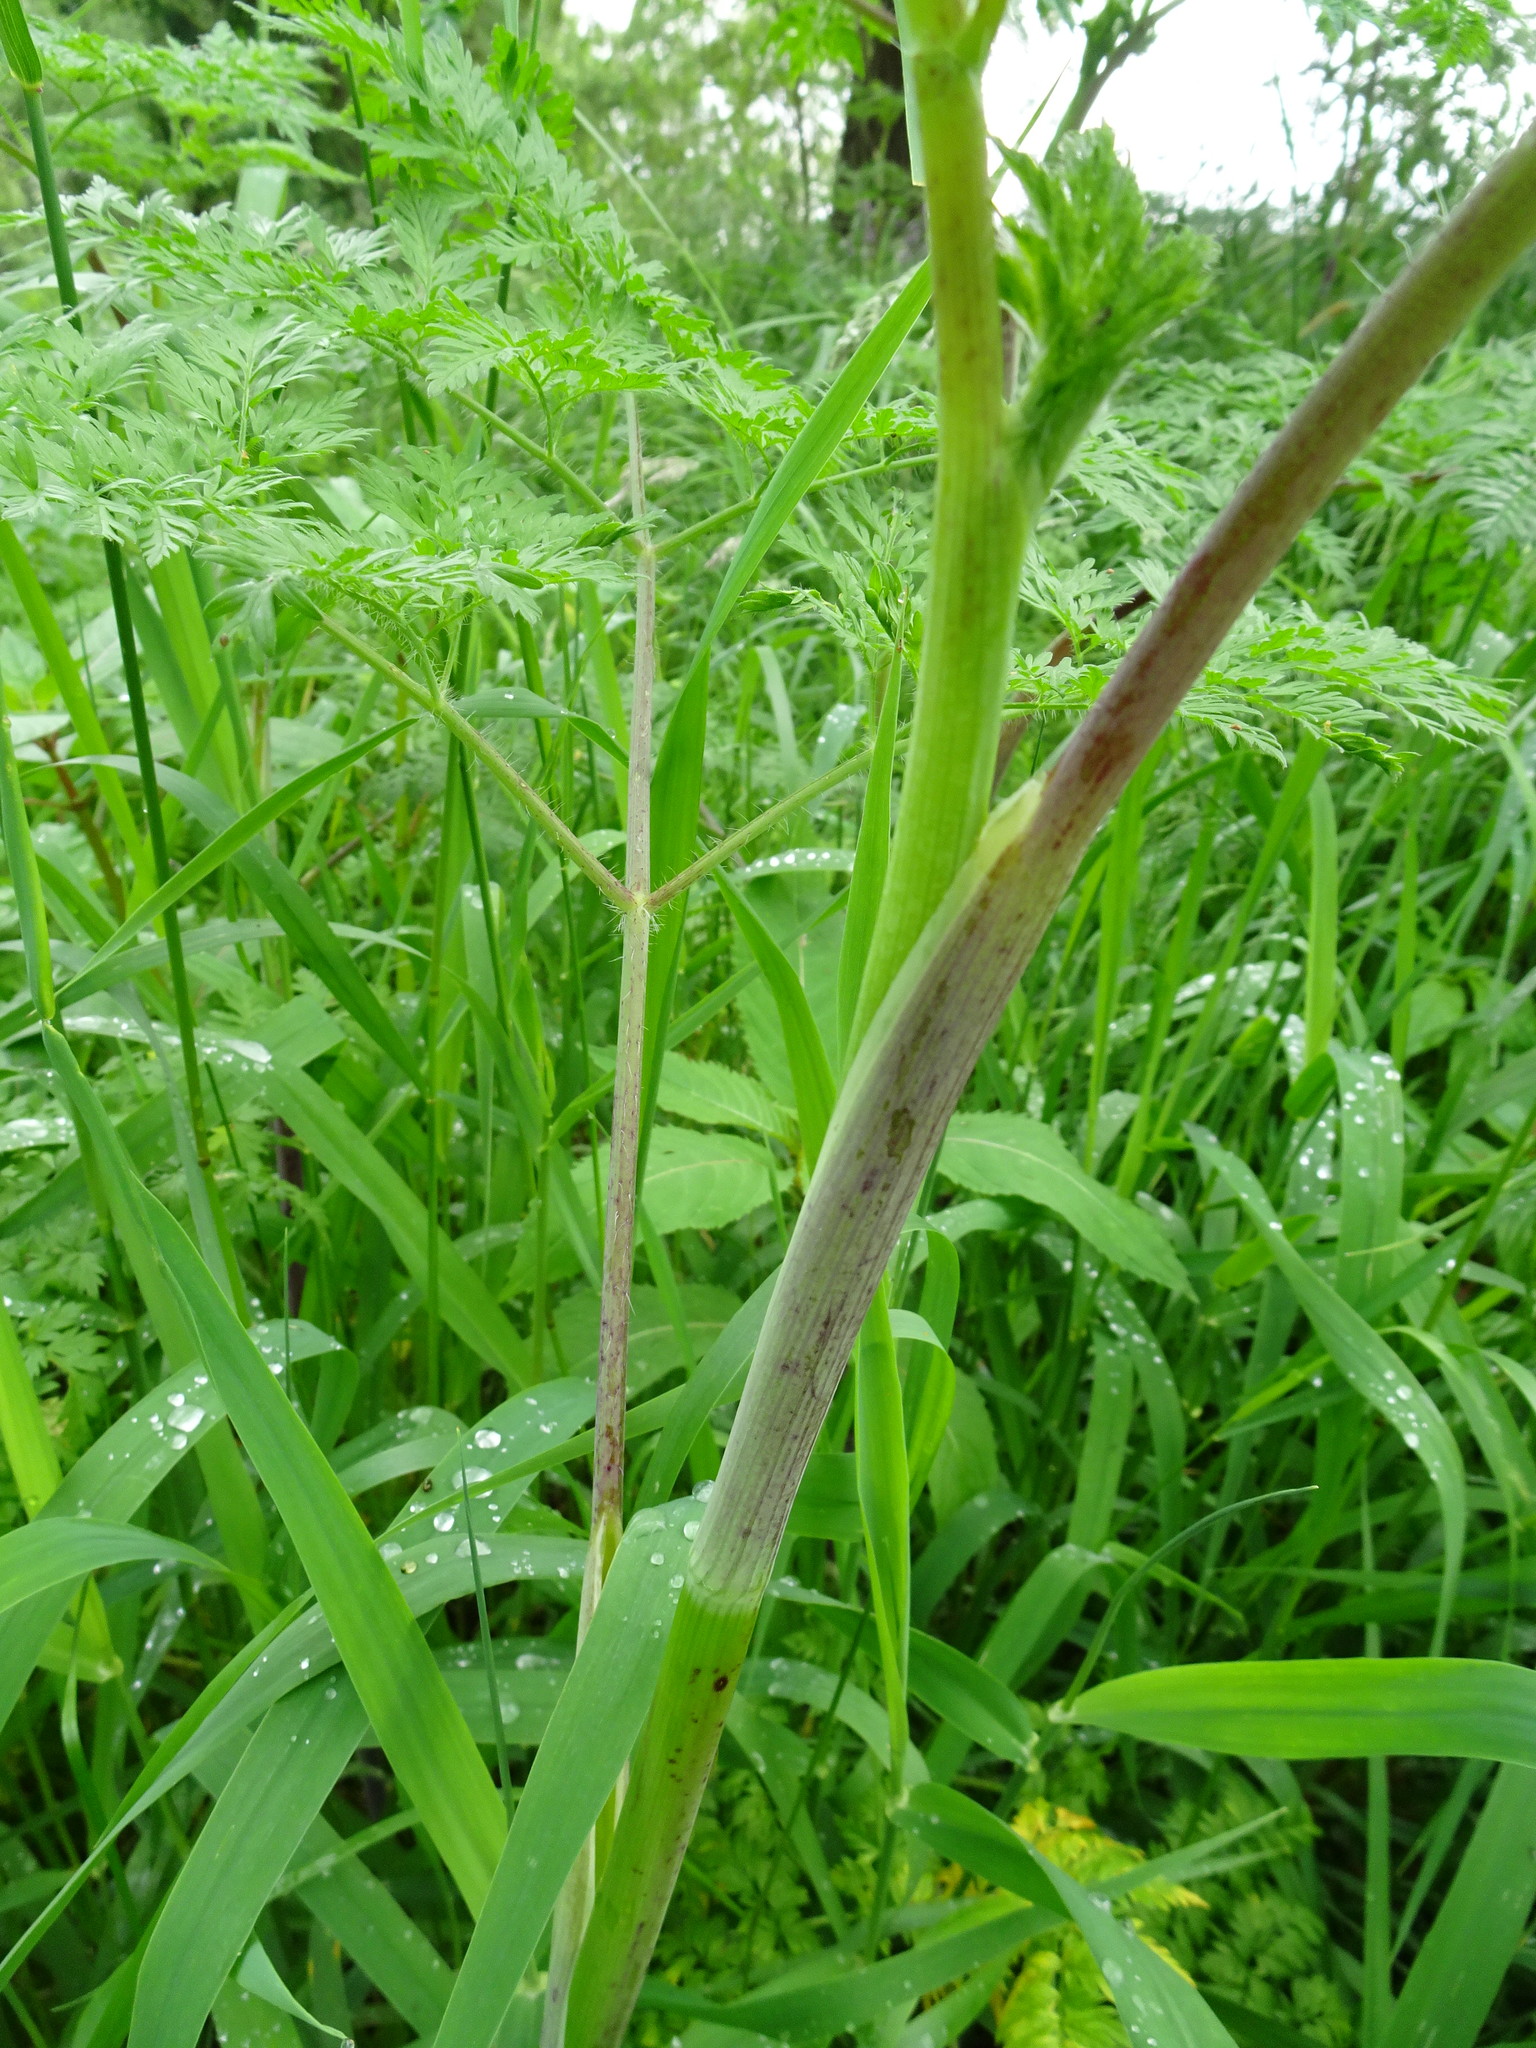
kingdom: Plantae
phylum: Tracheophyta
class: Magnoliopsida
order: Apiales
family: Apiaceae
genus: Conium
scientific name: Conium maculatum
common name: Hemlock
